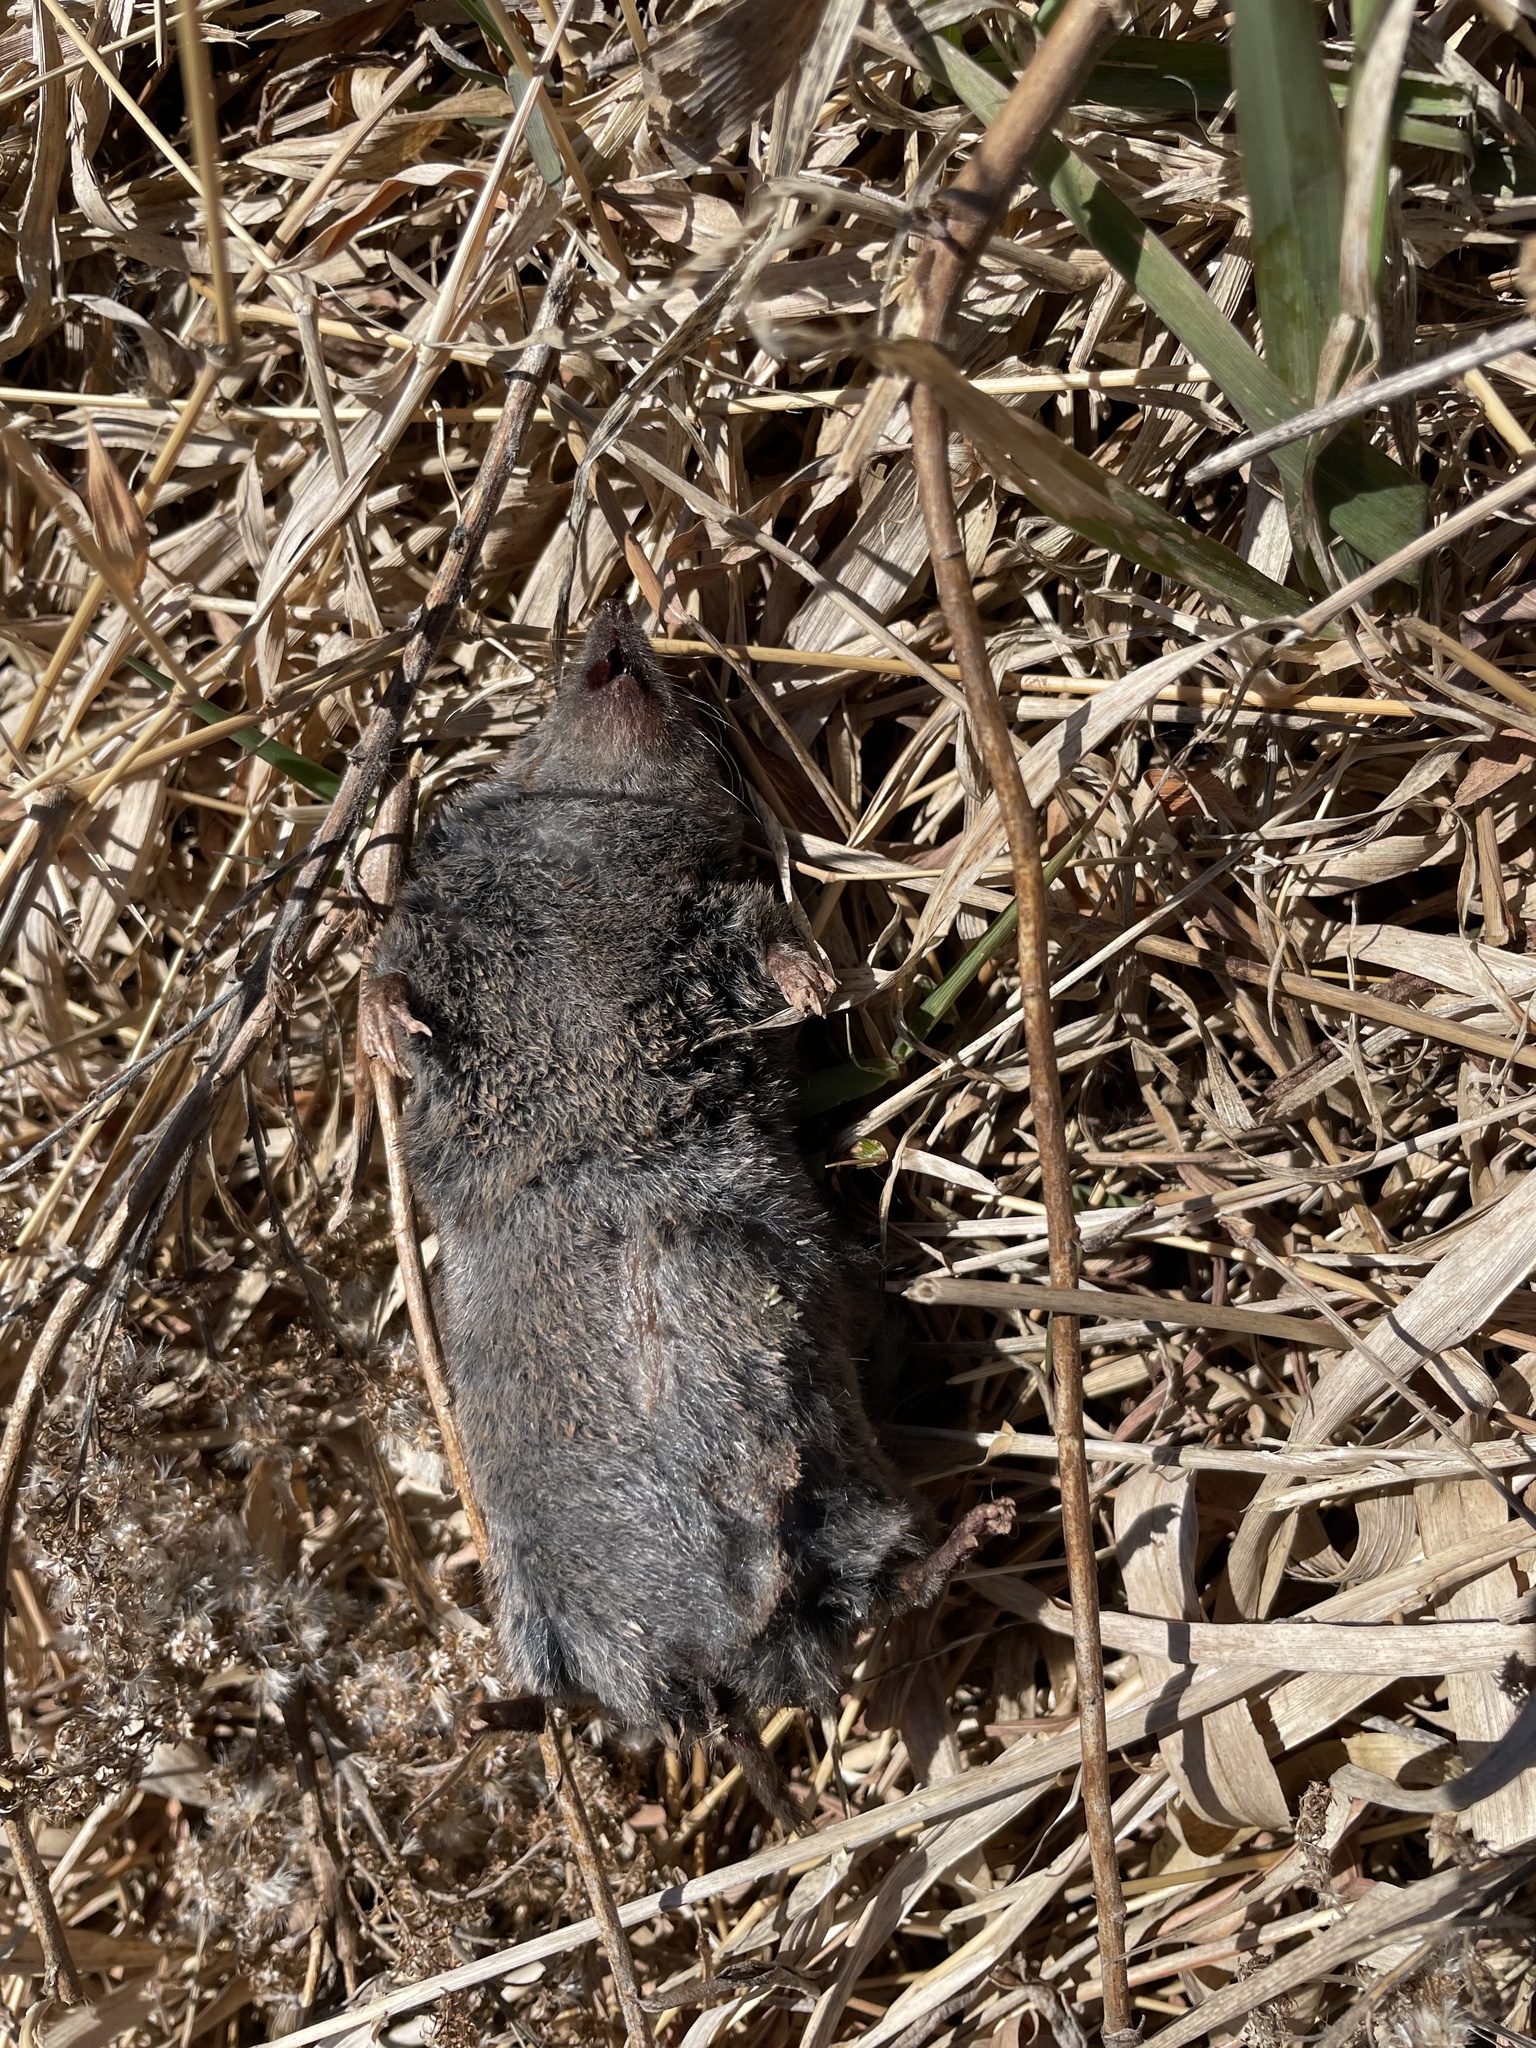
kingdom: Animalia
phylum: Chordata
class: Mammalia
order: Soricomorpha
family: Soricidae
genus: Blarina
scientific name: Blarina brevicauda
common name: Northern short-tailed shrew
